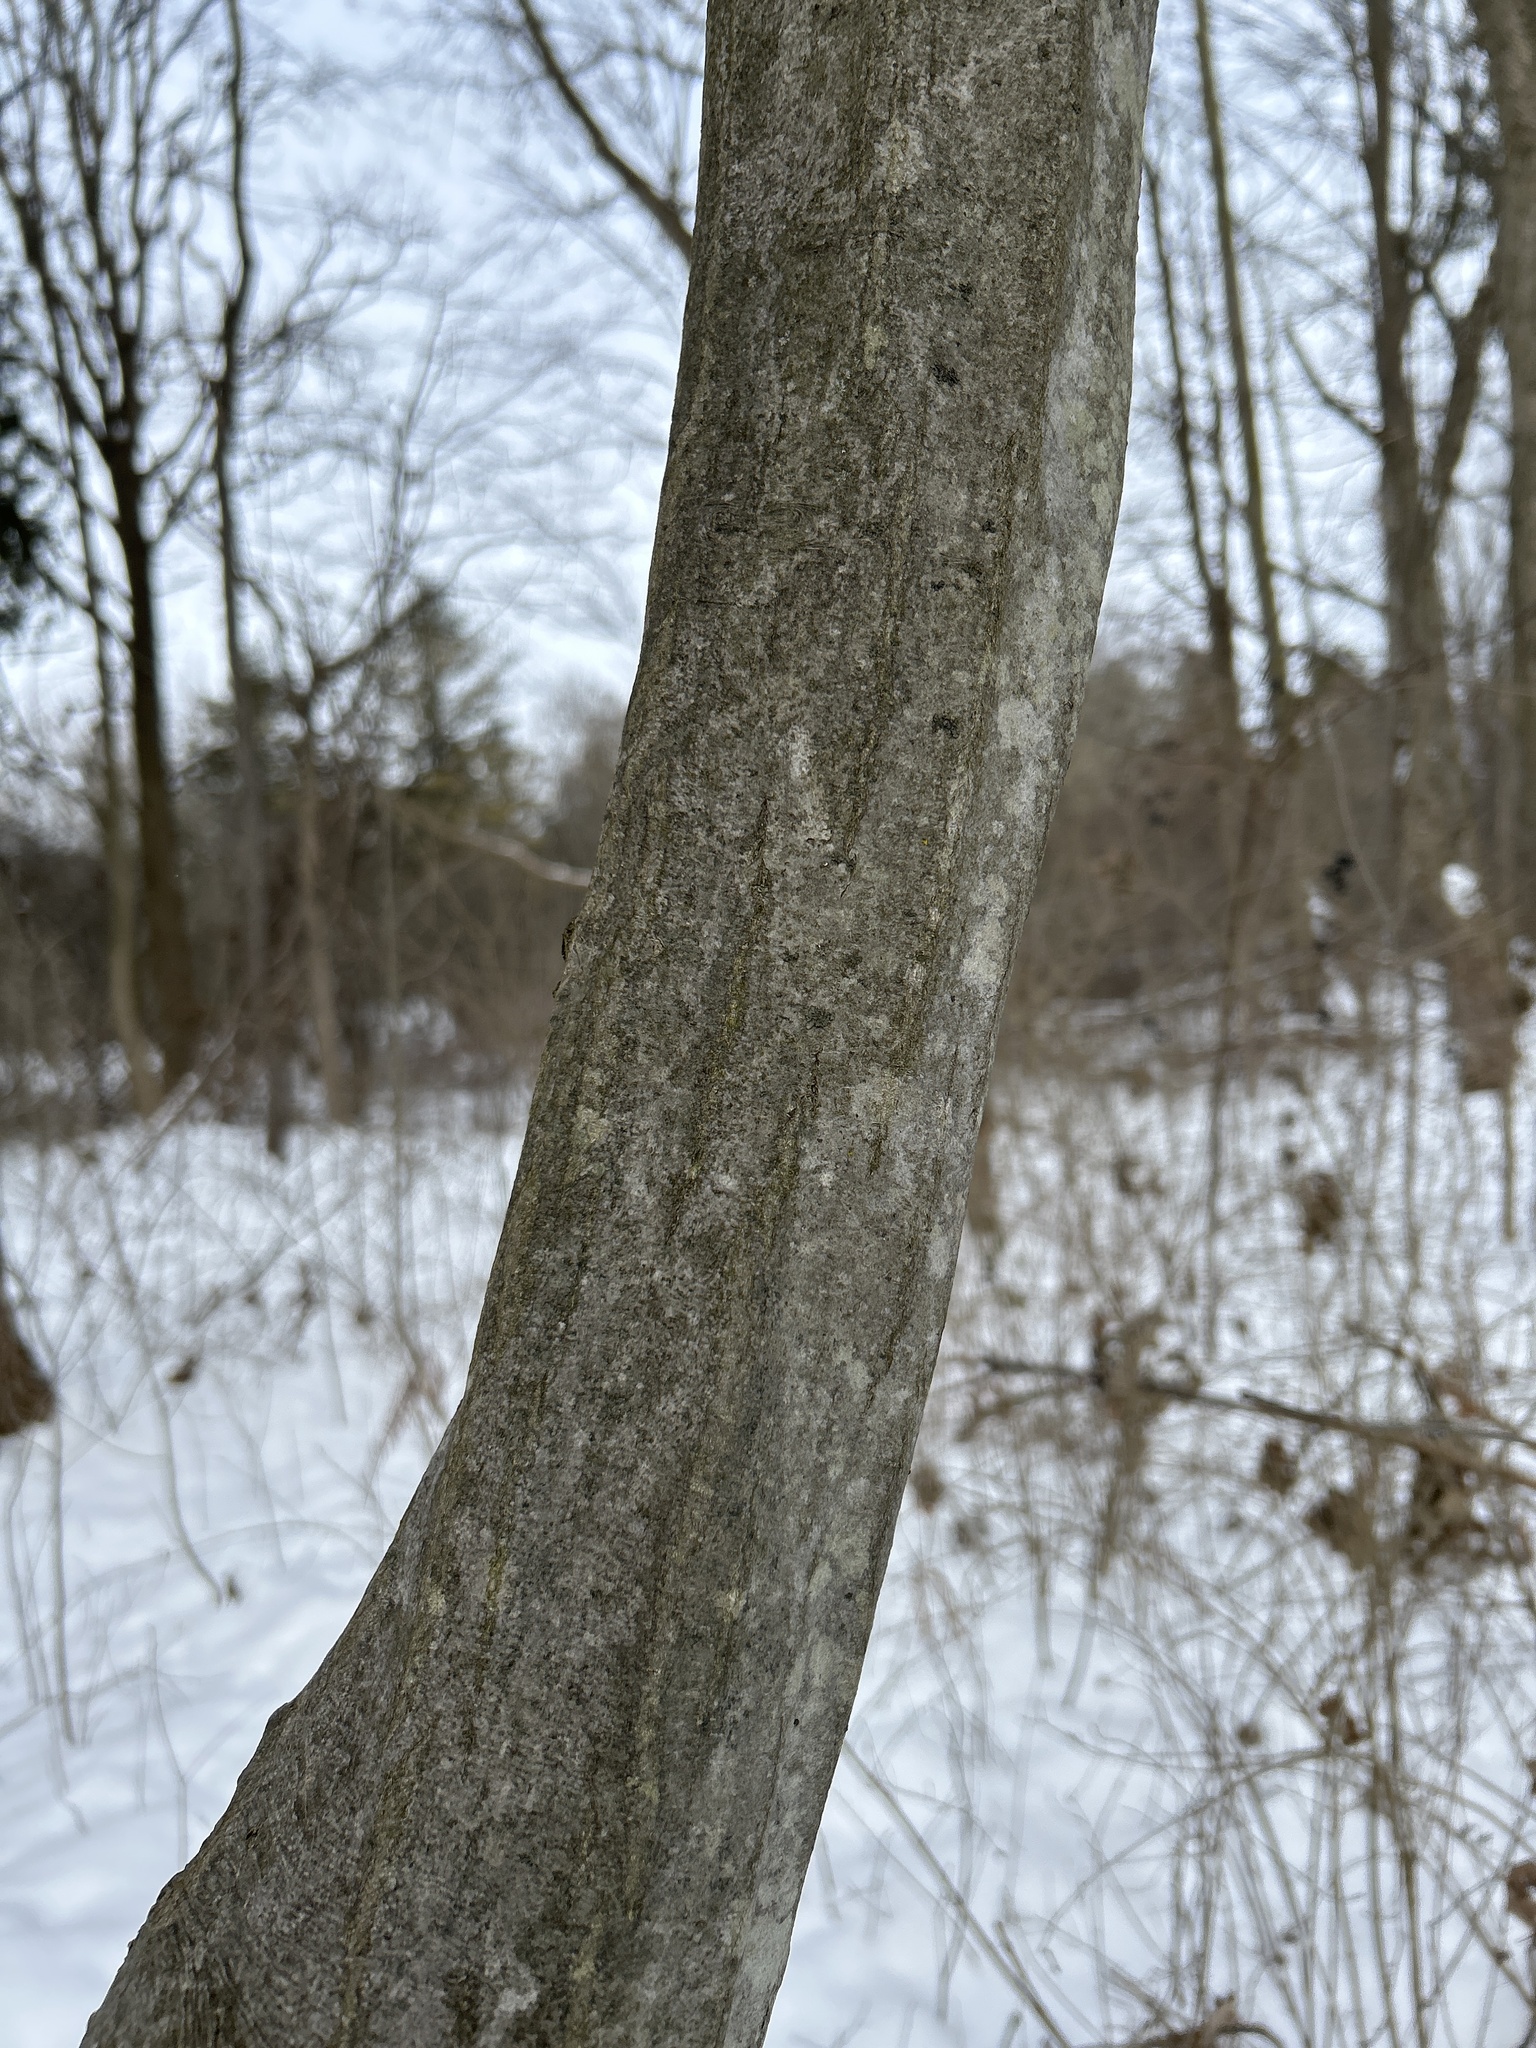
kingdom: Plantae
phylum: Tracheophyta
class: Magnoliopsida
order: Fagales
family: Betulaceae
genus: Carpinus
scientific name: Carpinus caroliniana
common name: American hornbeam
